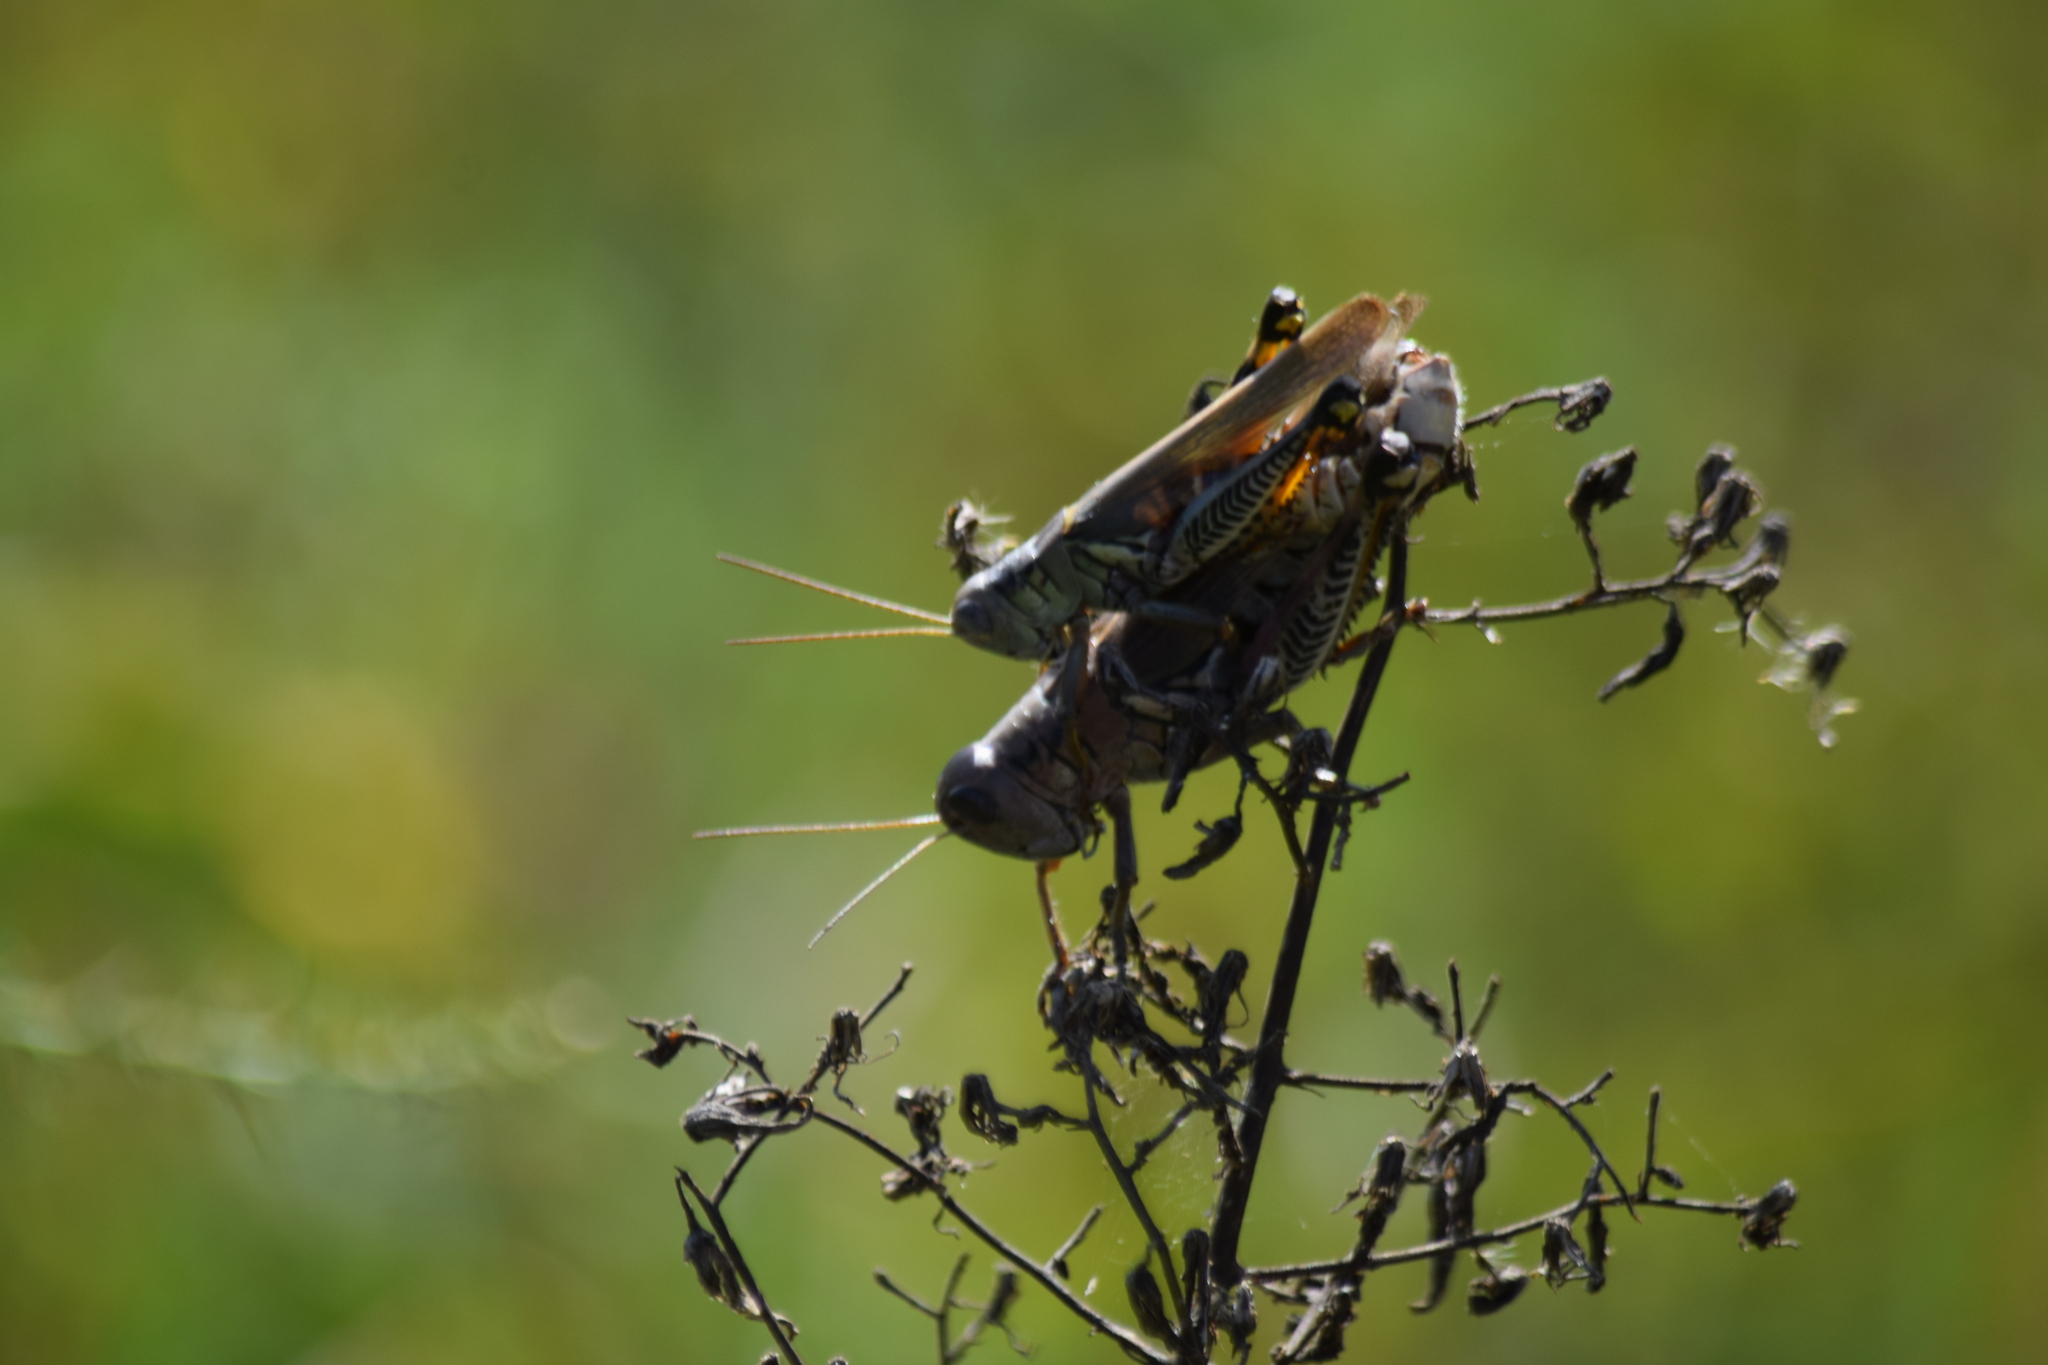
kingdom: Animalia
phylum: Arthropoda
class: Insecta
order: Orthoptera
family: Acrididae
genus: Melanoplus
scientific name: Melanoplus differentialis
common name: Differential grasshopper
